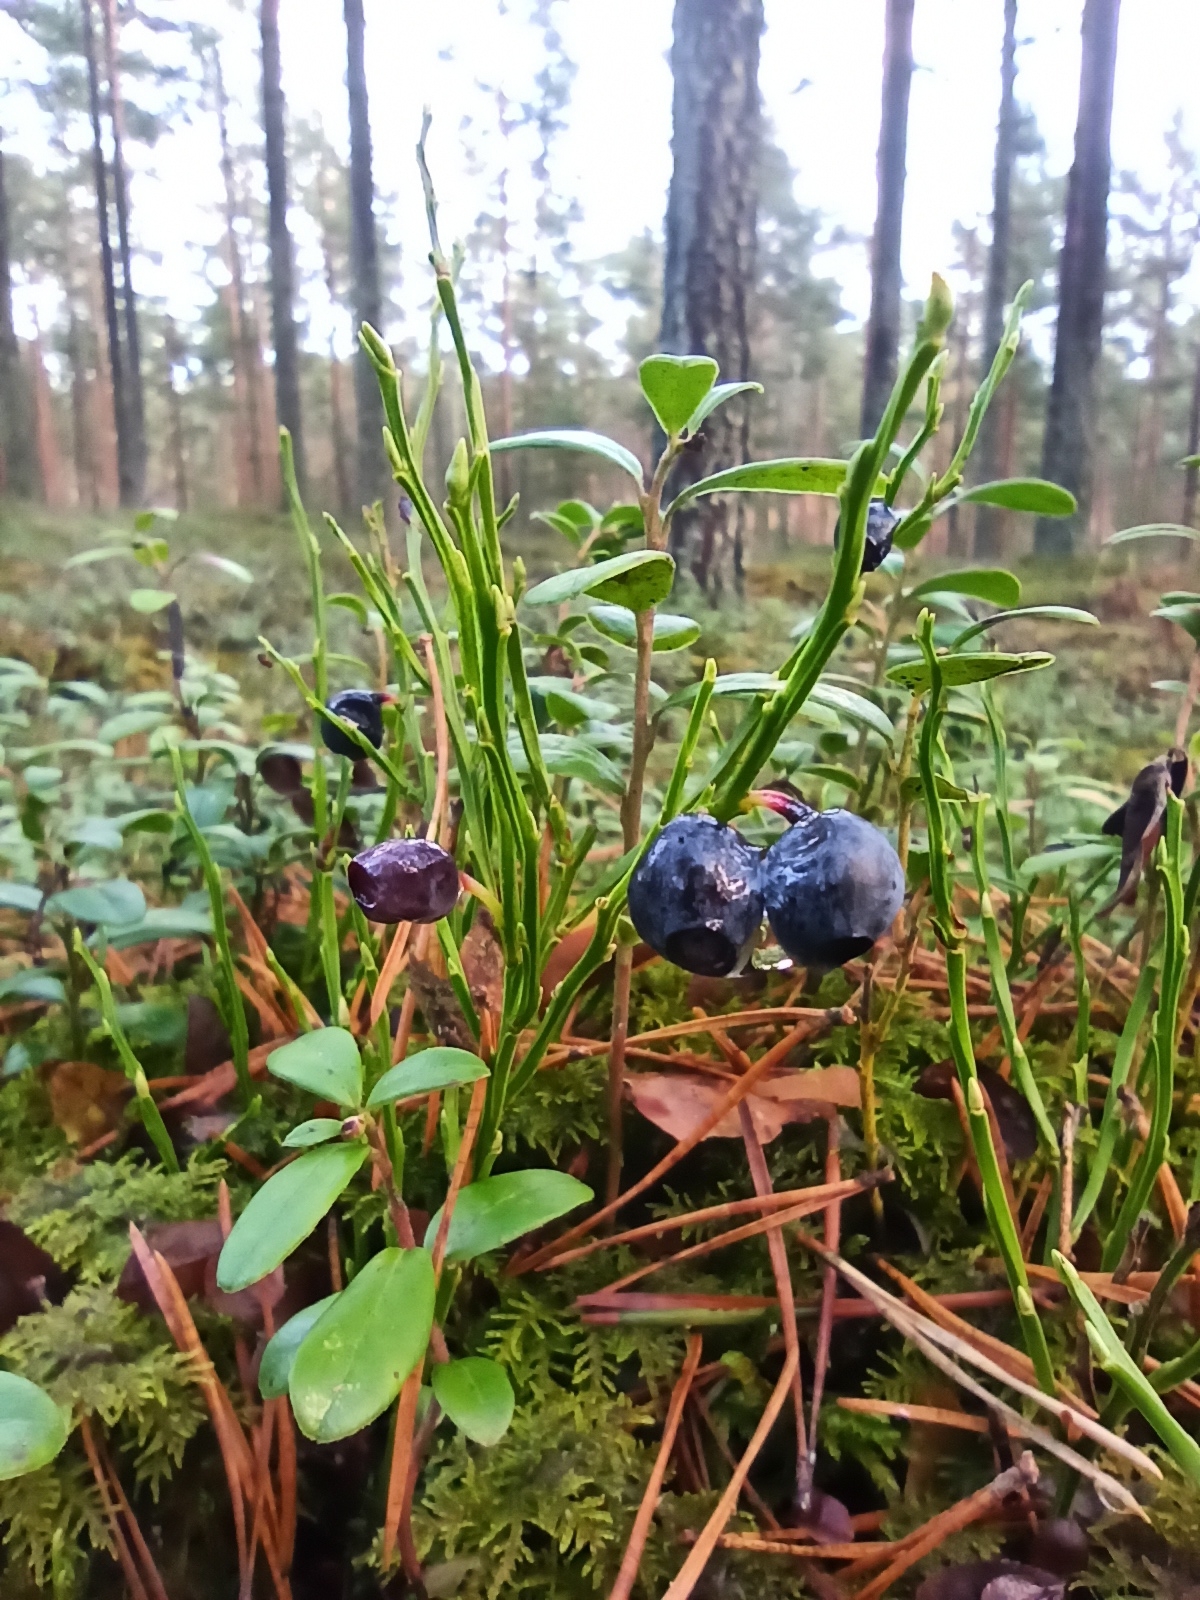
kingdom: Plantae
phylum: Tracheophyta
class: Magnoliopsida
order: Ericales
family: Ericaceae
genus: Vaccinium
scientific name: Vaccinium myrtillus
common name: Bilberry
